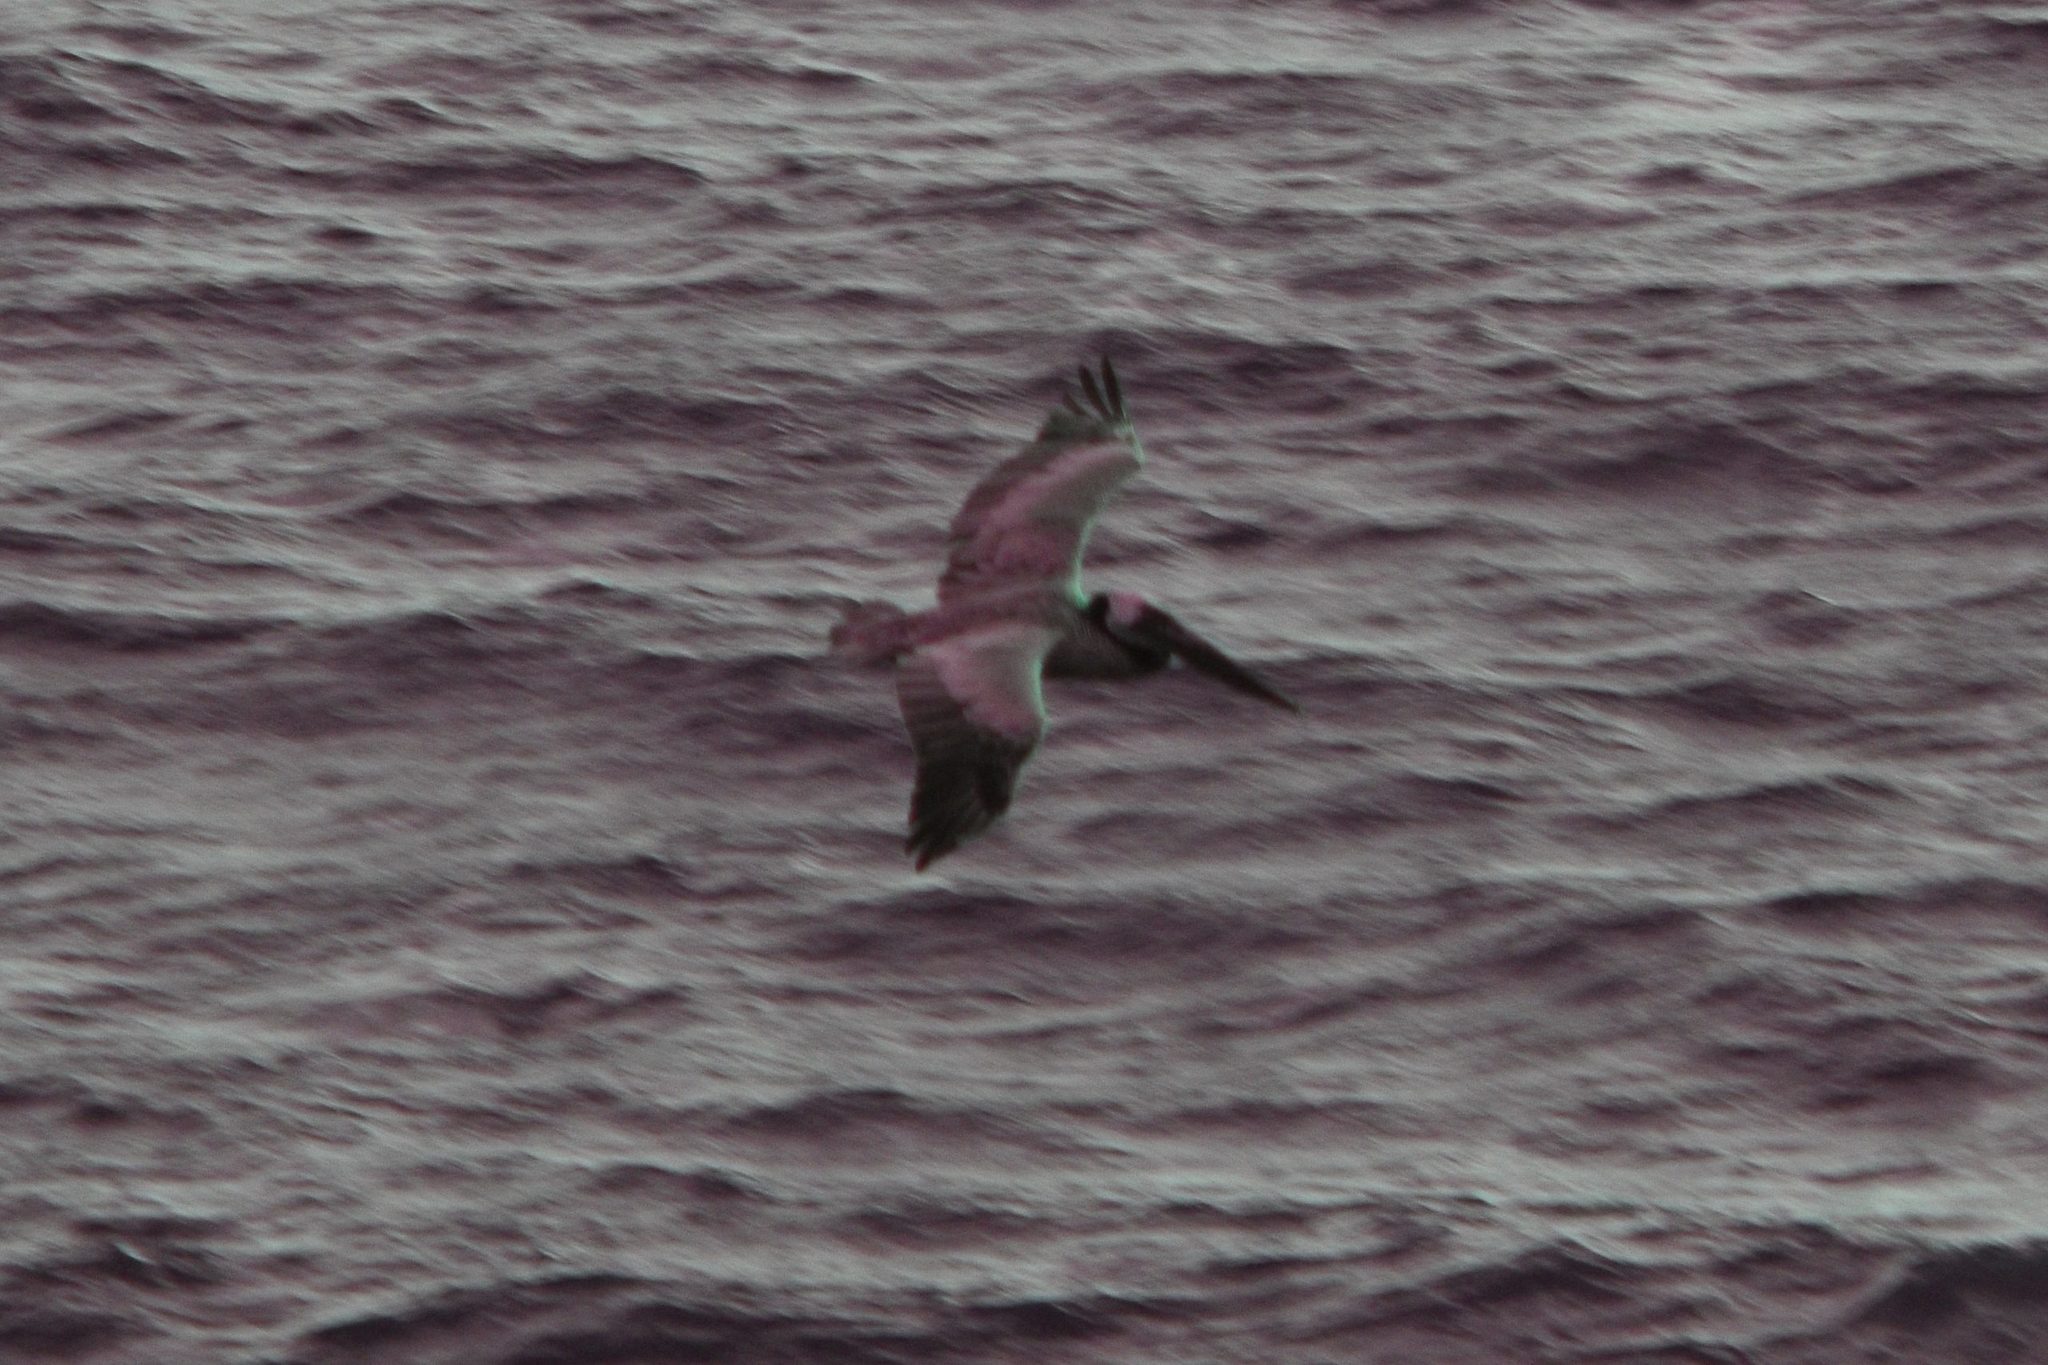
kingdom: Animalia
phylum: Chordata
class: Aves
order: Pelecaniformes
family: Pelecanidae
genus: Pelecanus
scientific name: Pelecanus occidentalis
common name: Brown pelican
